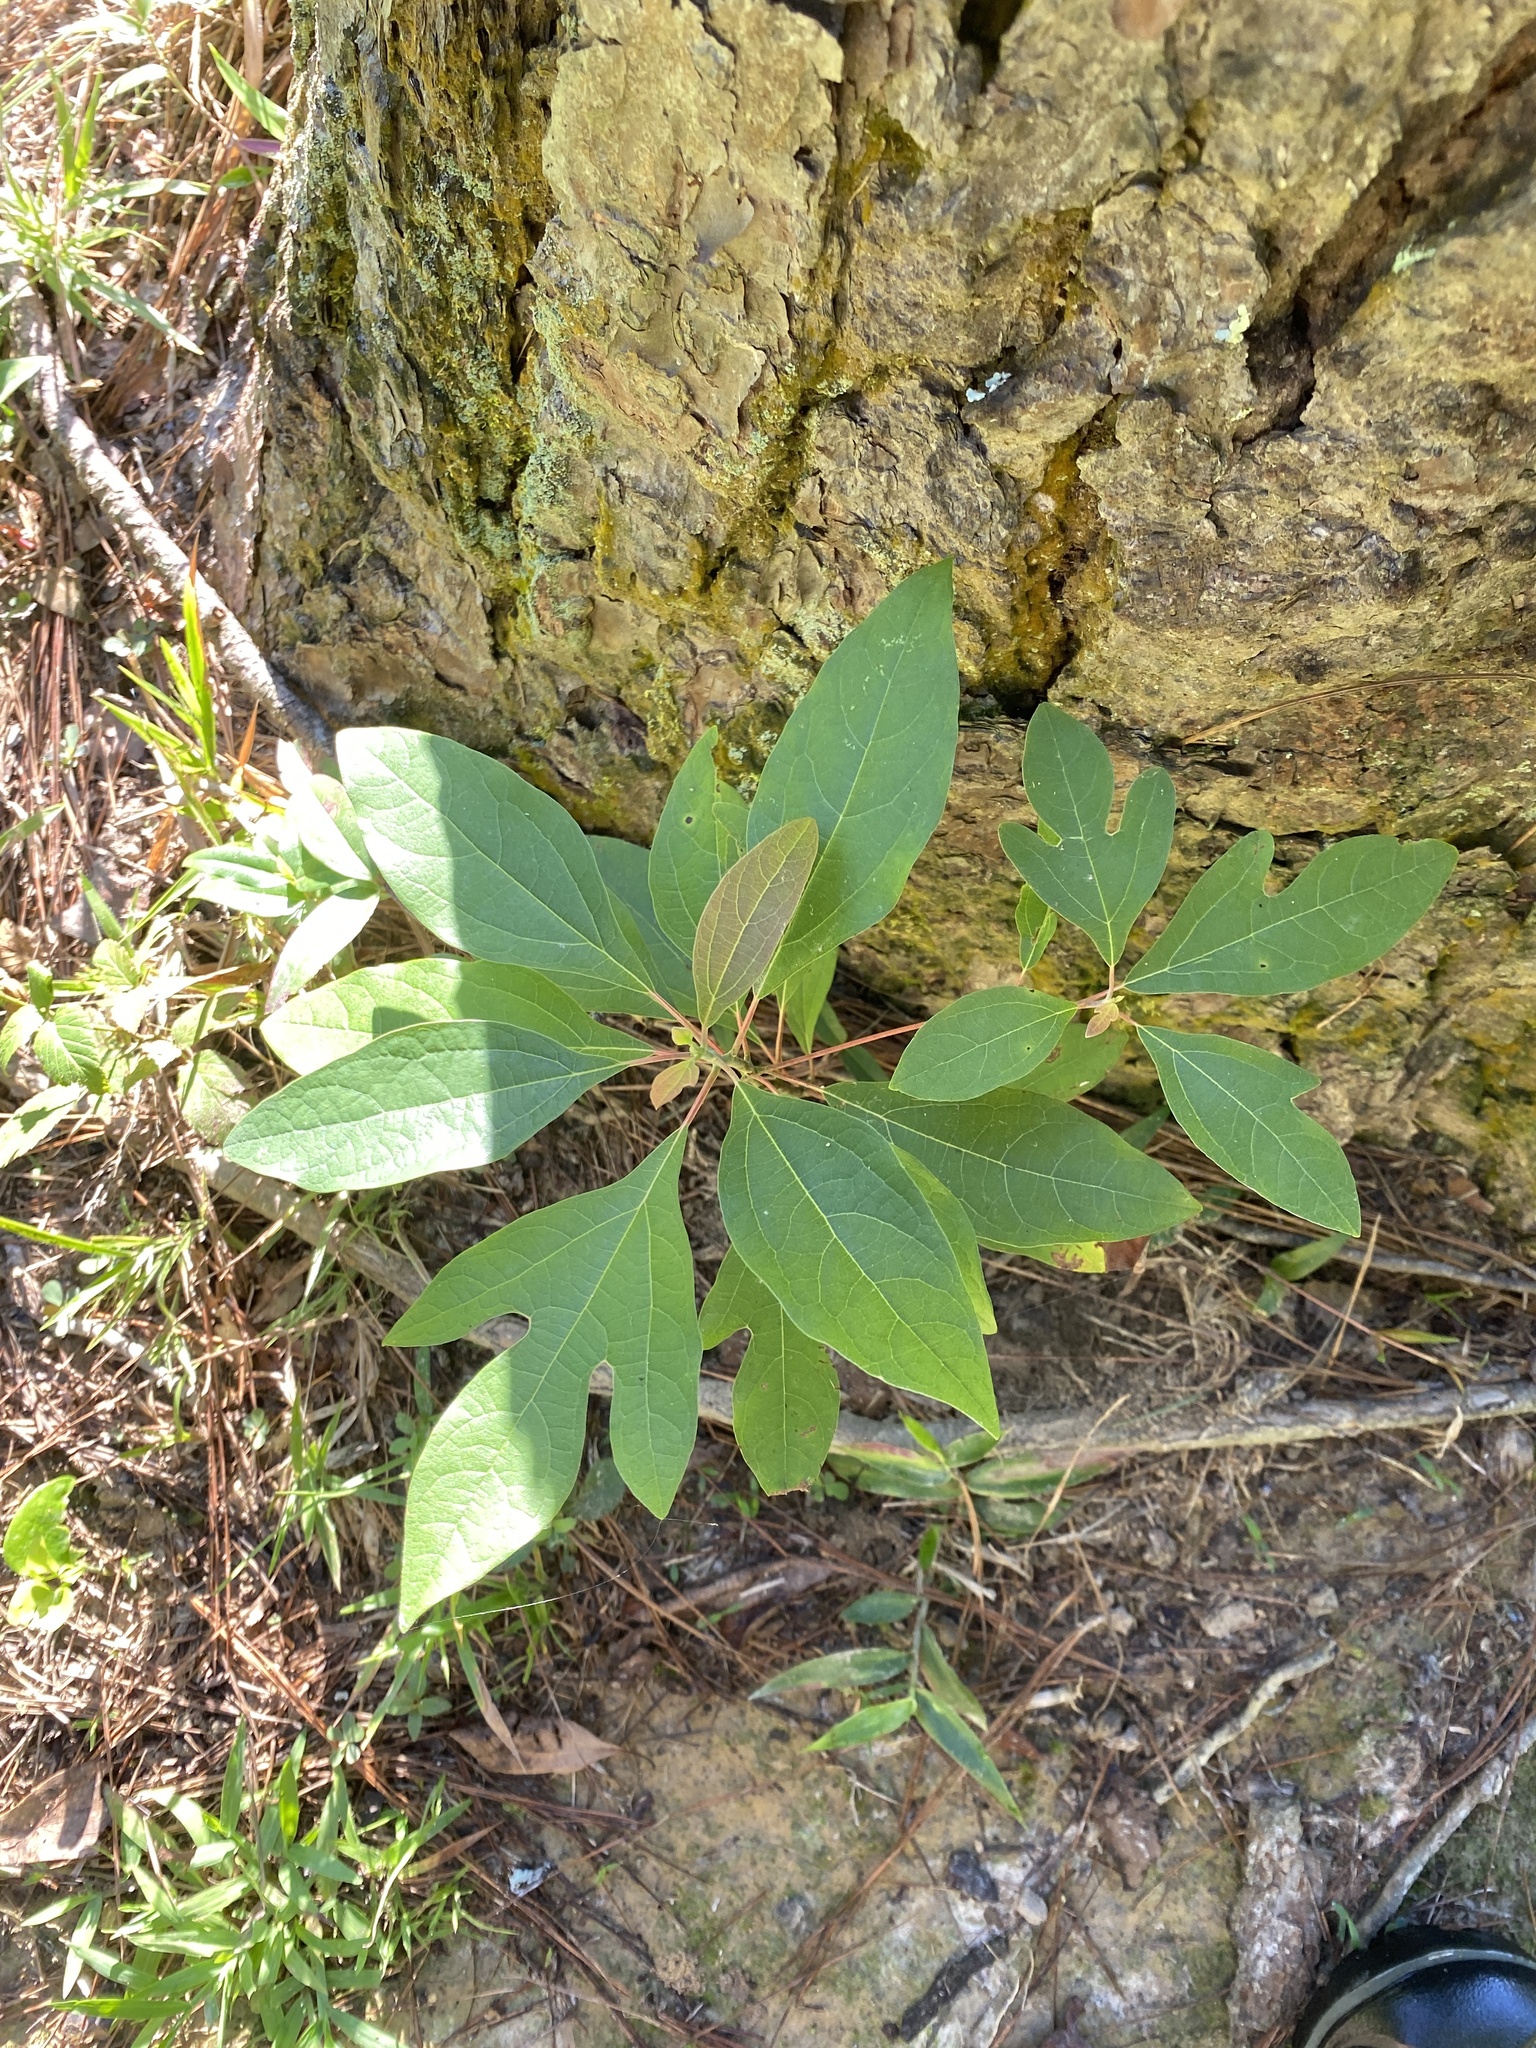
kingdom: Plantae
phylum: Tracheophyta
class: Magnoliopsida
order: Laurales
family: Lauraceae
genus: Sassafras
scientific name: Sassafras albidum
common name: Sassafras
